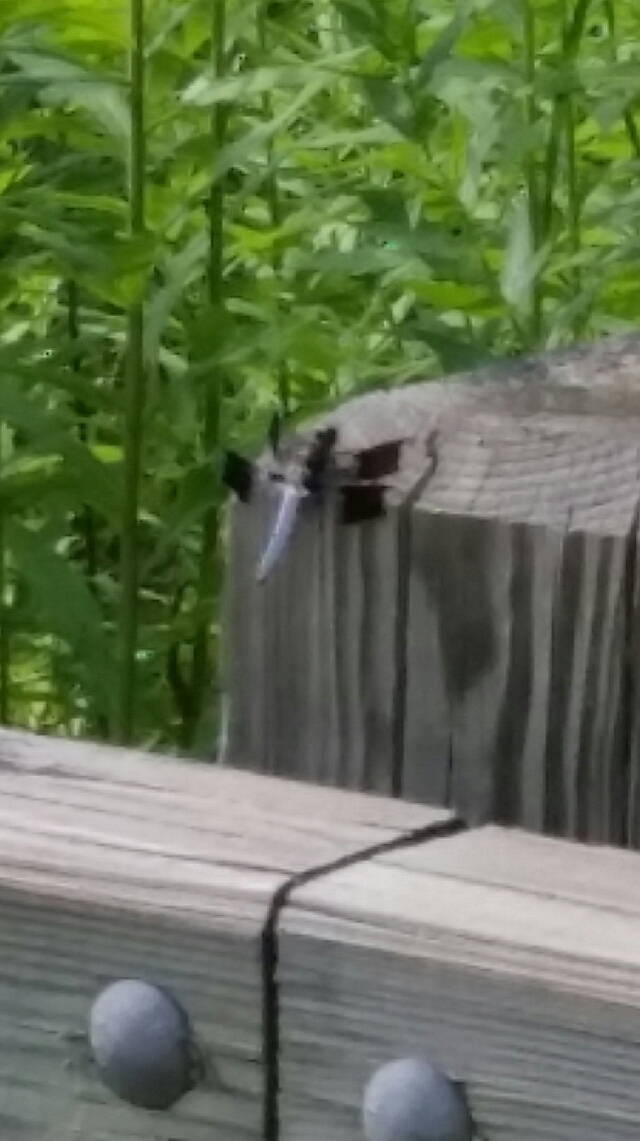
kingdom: Animalia
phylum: Arthropoda
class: Insecta
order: Odonata
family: Libellulidae
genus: Plathemis
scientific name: Plathemis lydia
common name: Common whitetail
